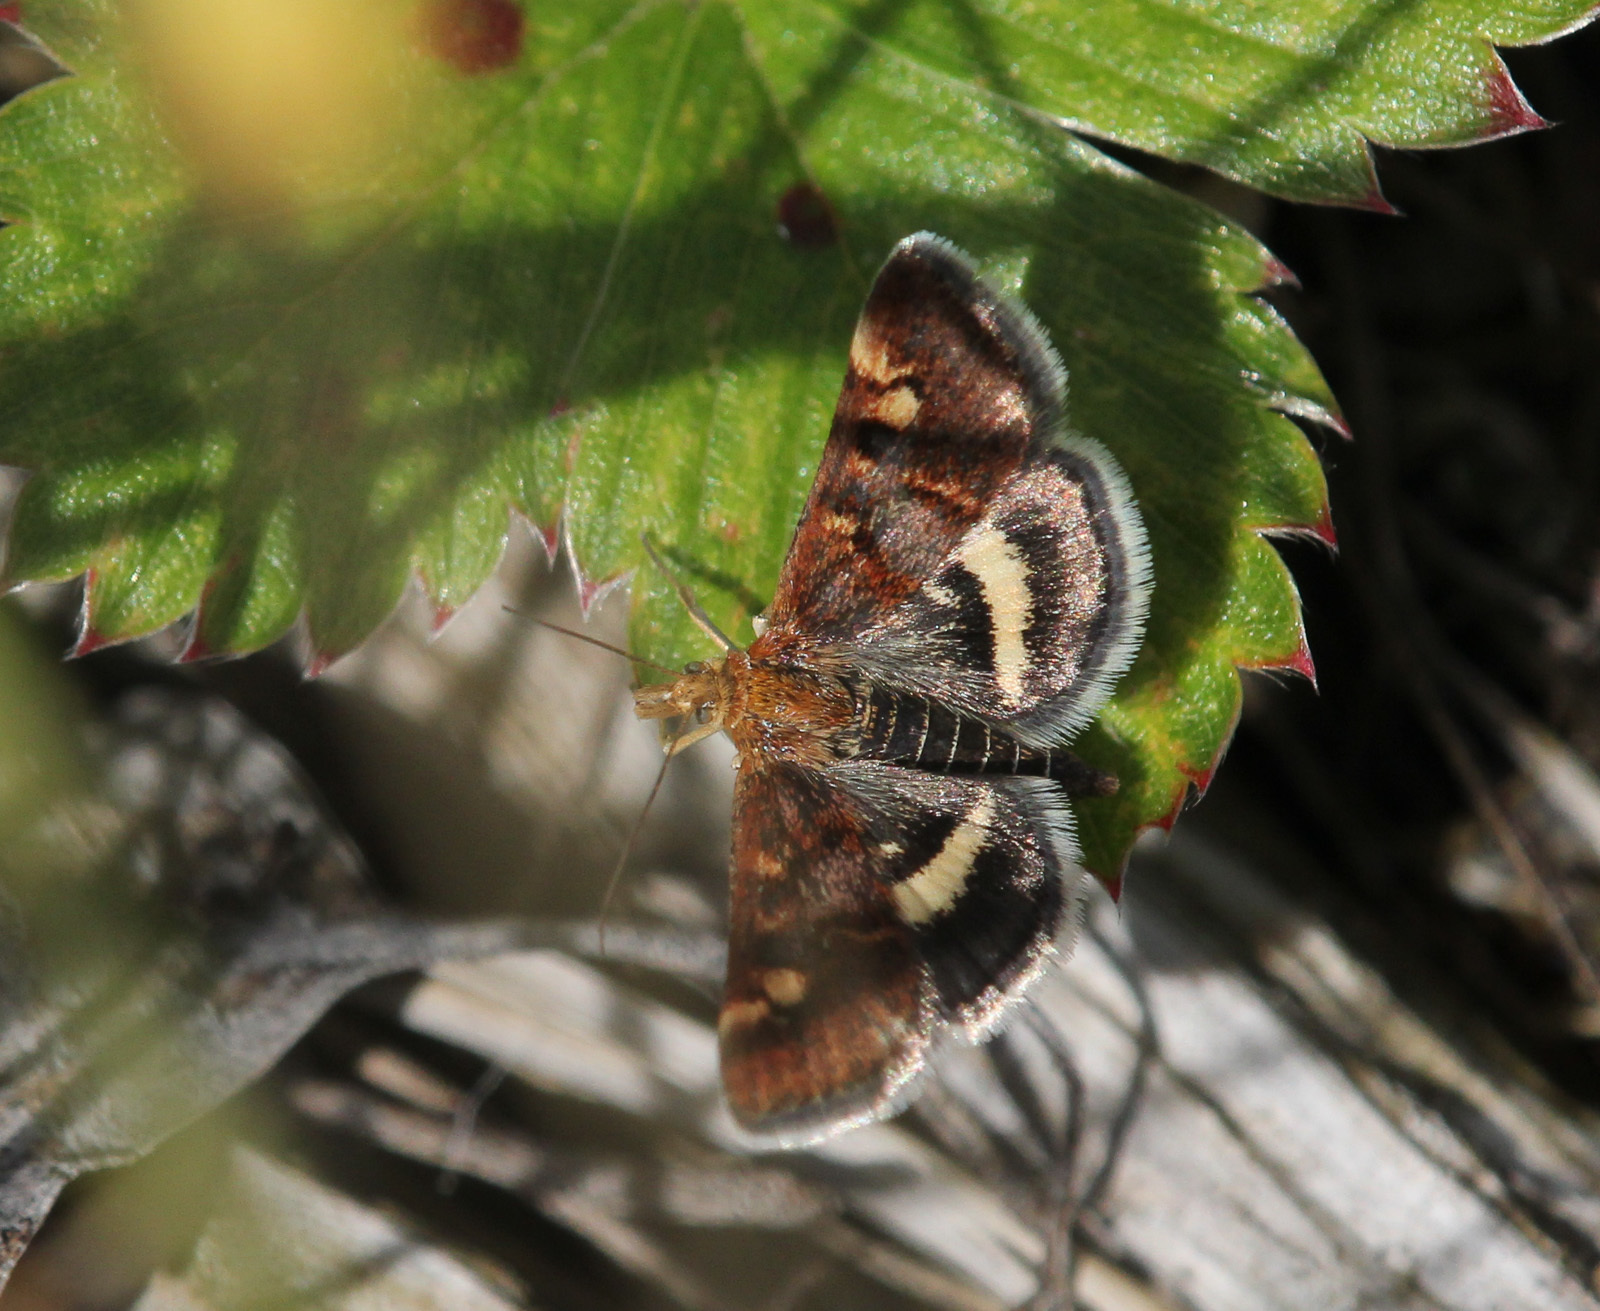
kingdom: Animalia
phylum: Arthropoda
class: Insecta
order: Lepidoptera
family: Crambidae
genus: Pyrausta
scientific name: Pyrausta porphyralis
